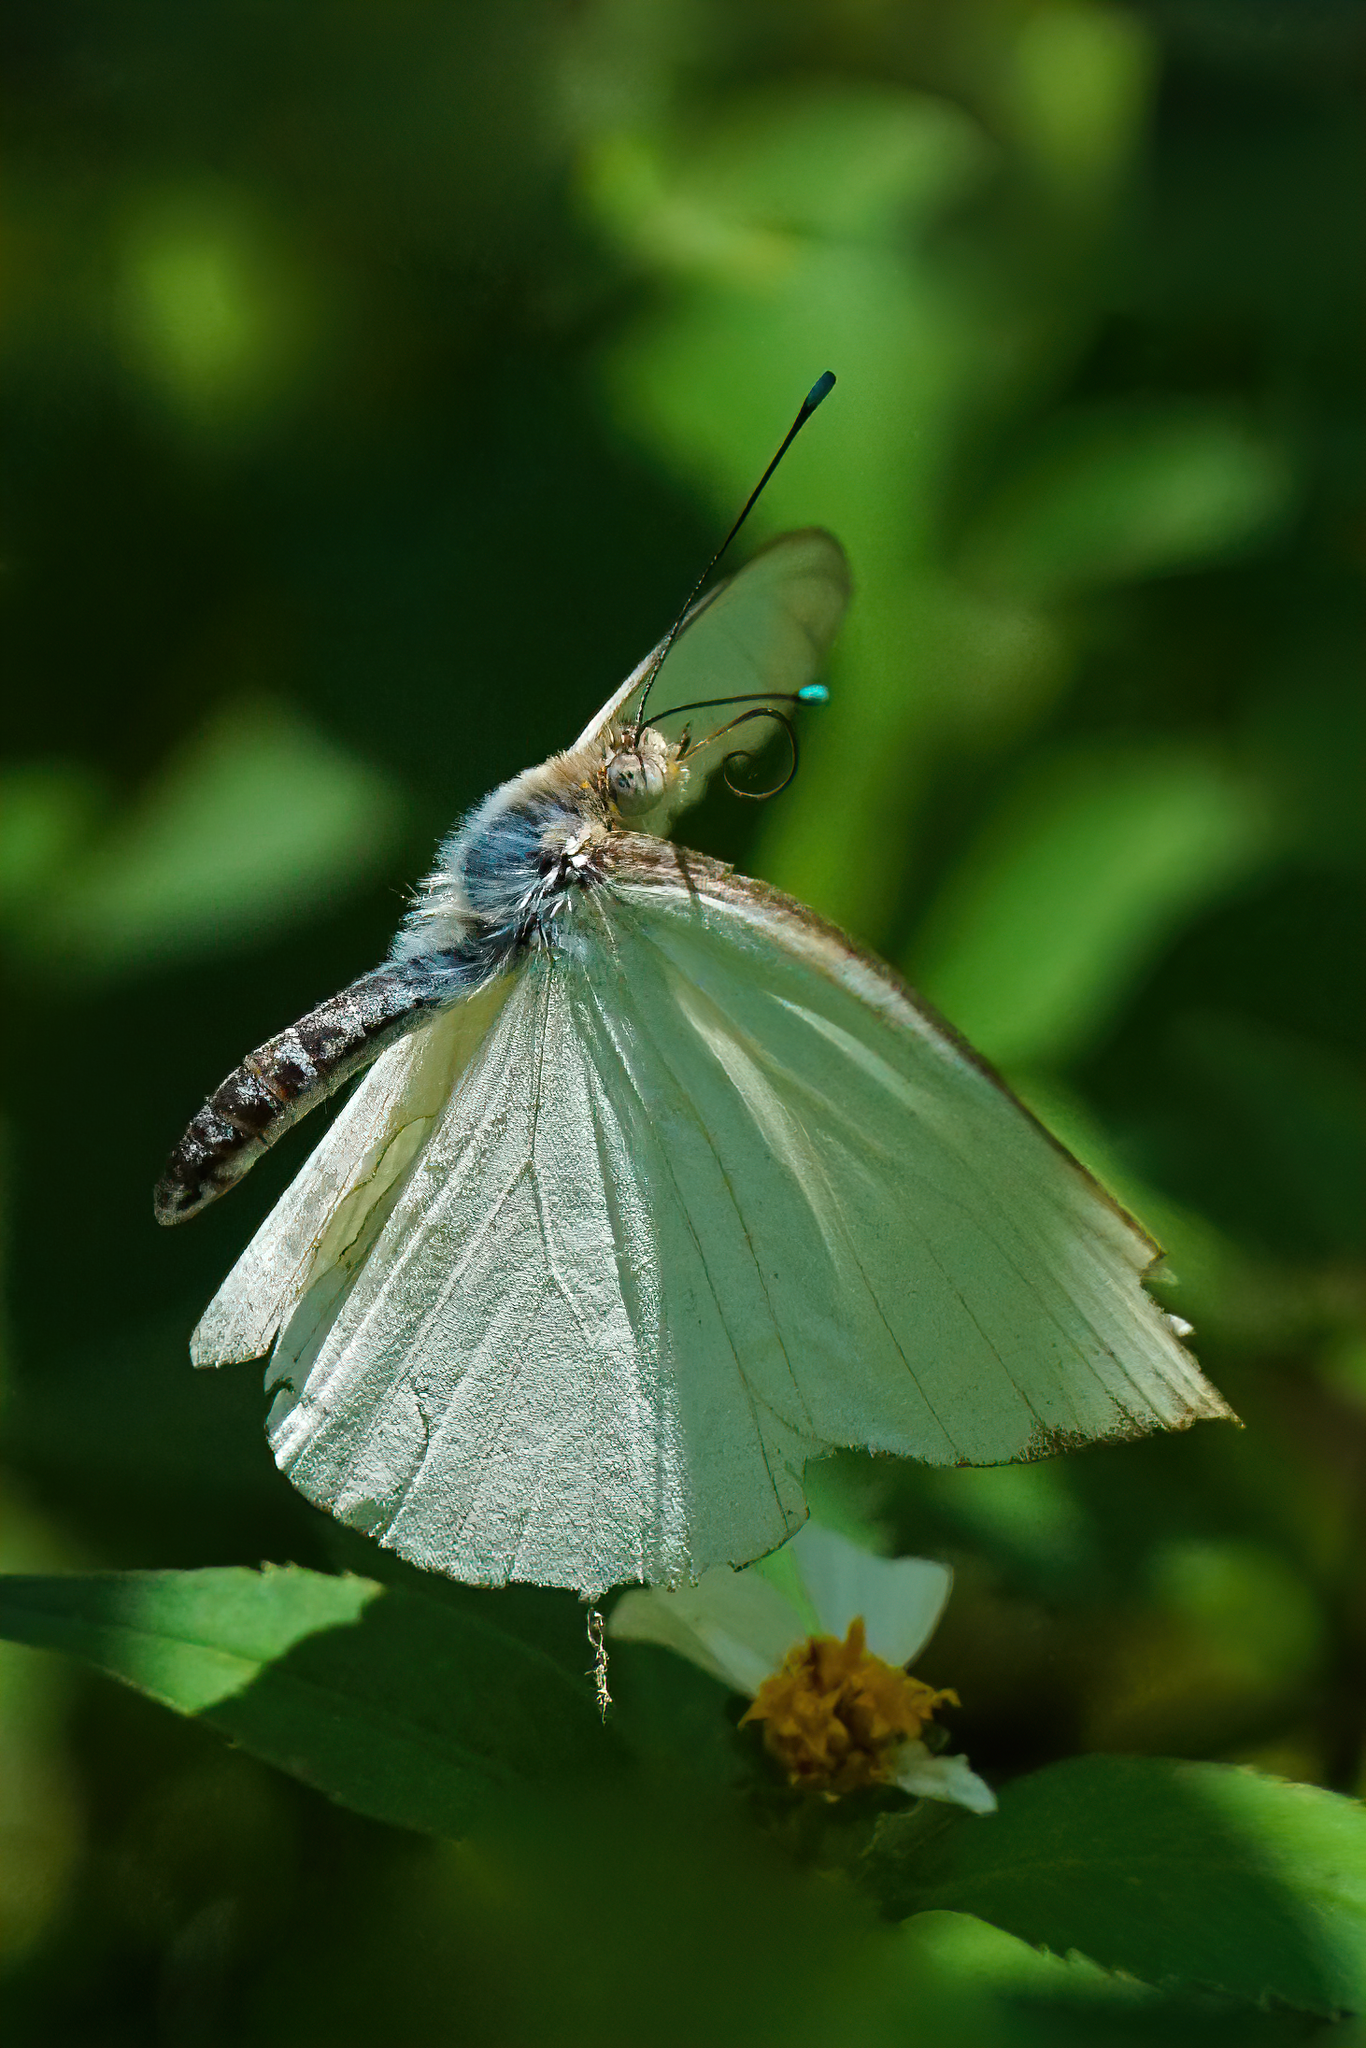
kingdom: Animalia
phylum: Arthropoda
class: Insecta
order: Lepidoptera
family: Pieridae
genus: Ascia
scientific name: Ascia monuste
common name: Great southern white
